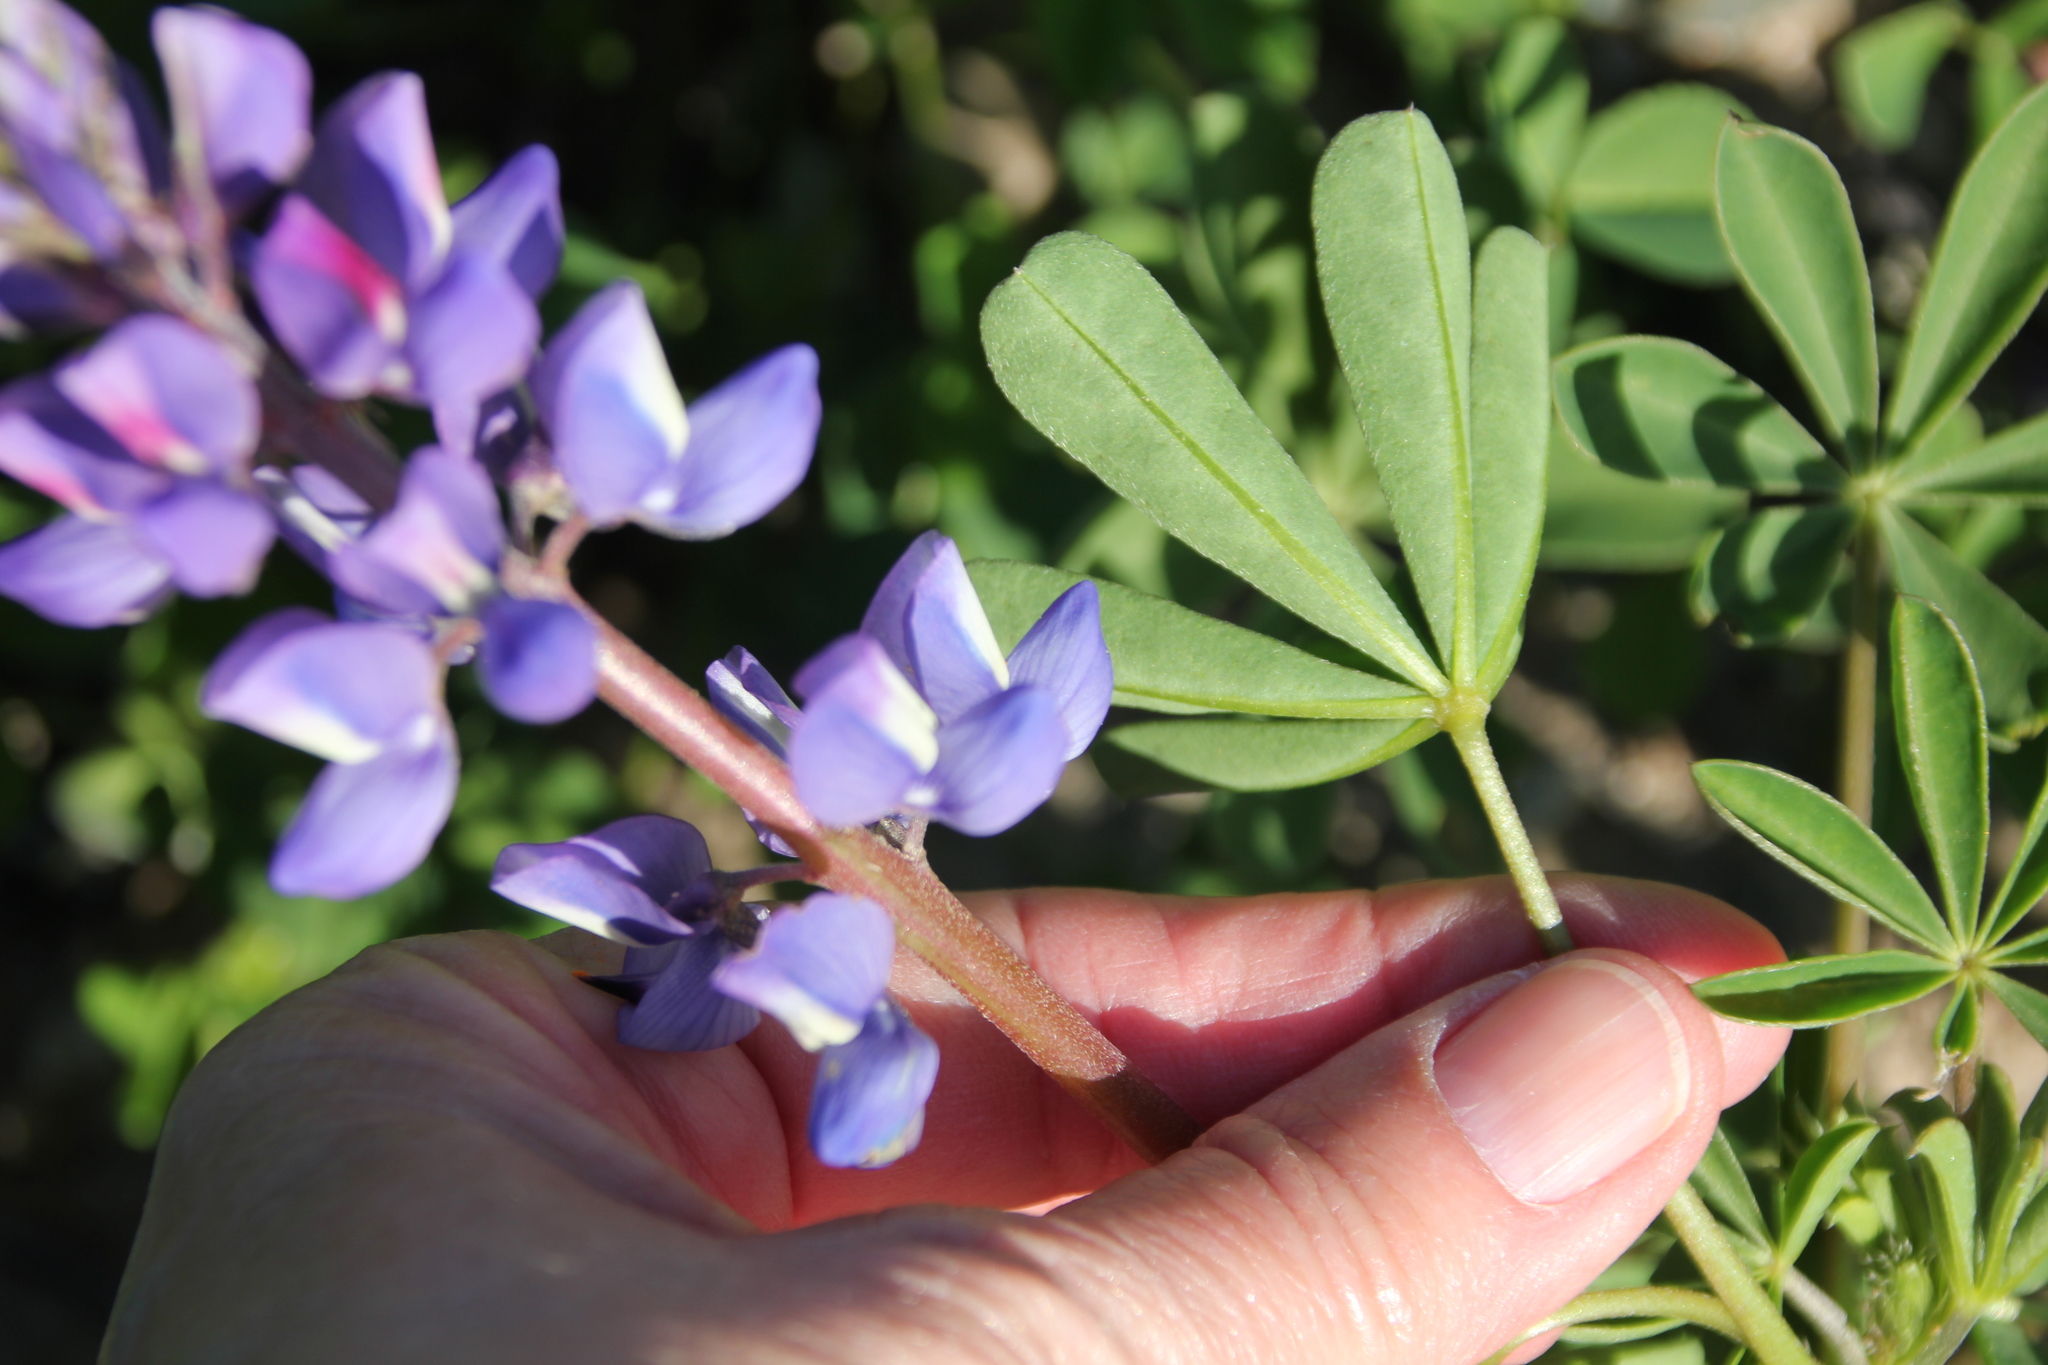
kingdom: Plantae
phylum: Tracheophyta
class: Magnoliopsida
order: Fabales
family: Fabaceae
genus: Lupinus
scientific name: Lupinus succulentus
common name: Arroyo lupine
